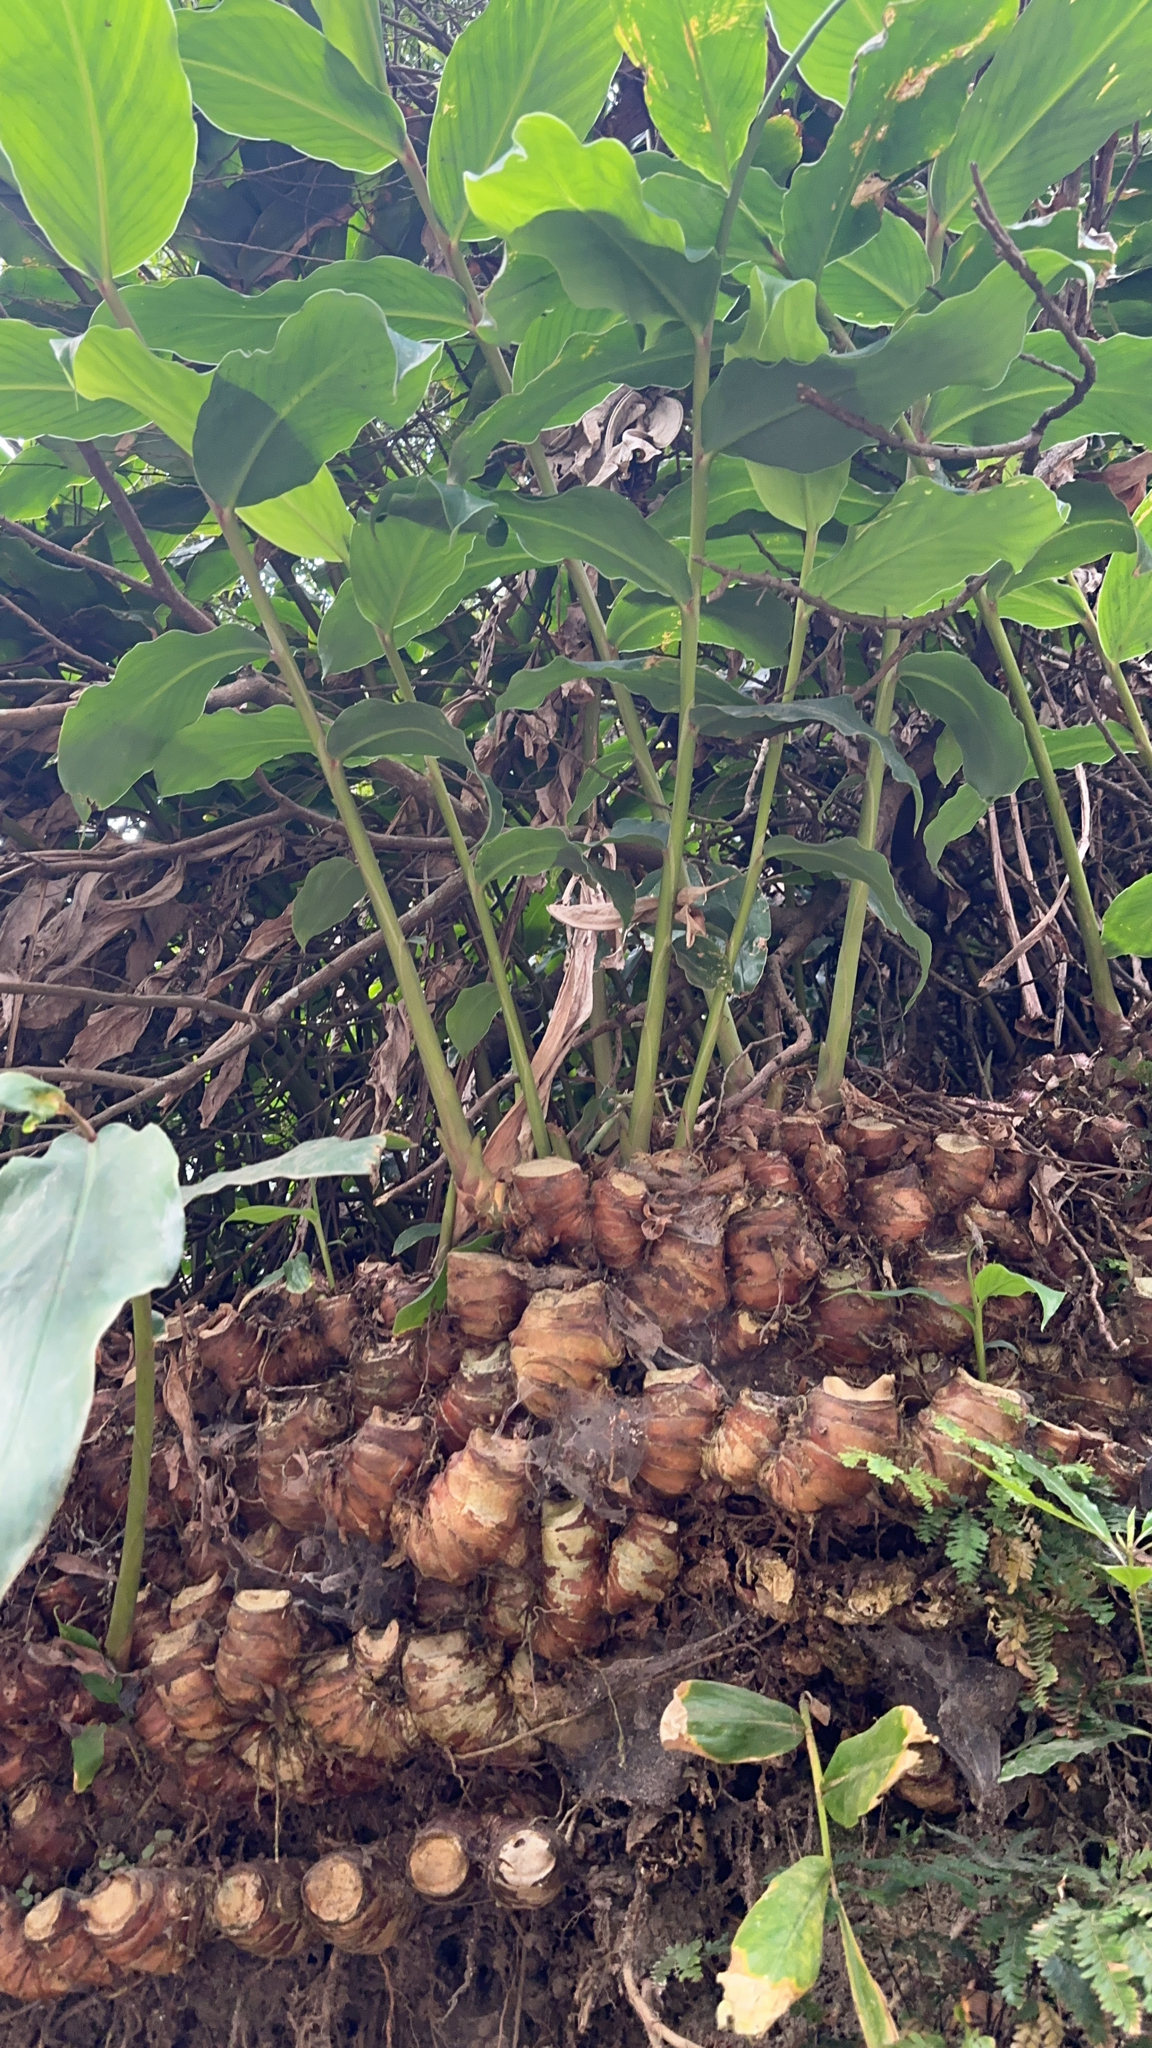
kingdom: Plantae
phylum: Tracheophyta
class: Liliopsida
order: Zingiberales
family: Zingiberaceae
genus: Hedychium
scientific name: Hedychium gardnerianum
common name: Himalayan ginger
